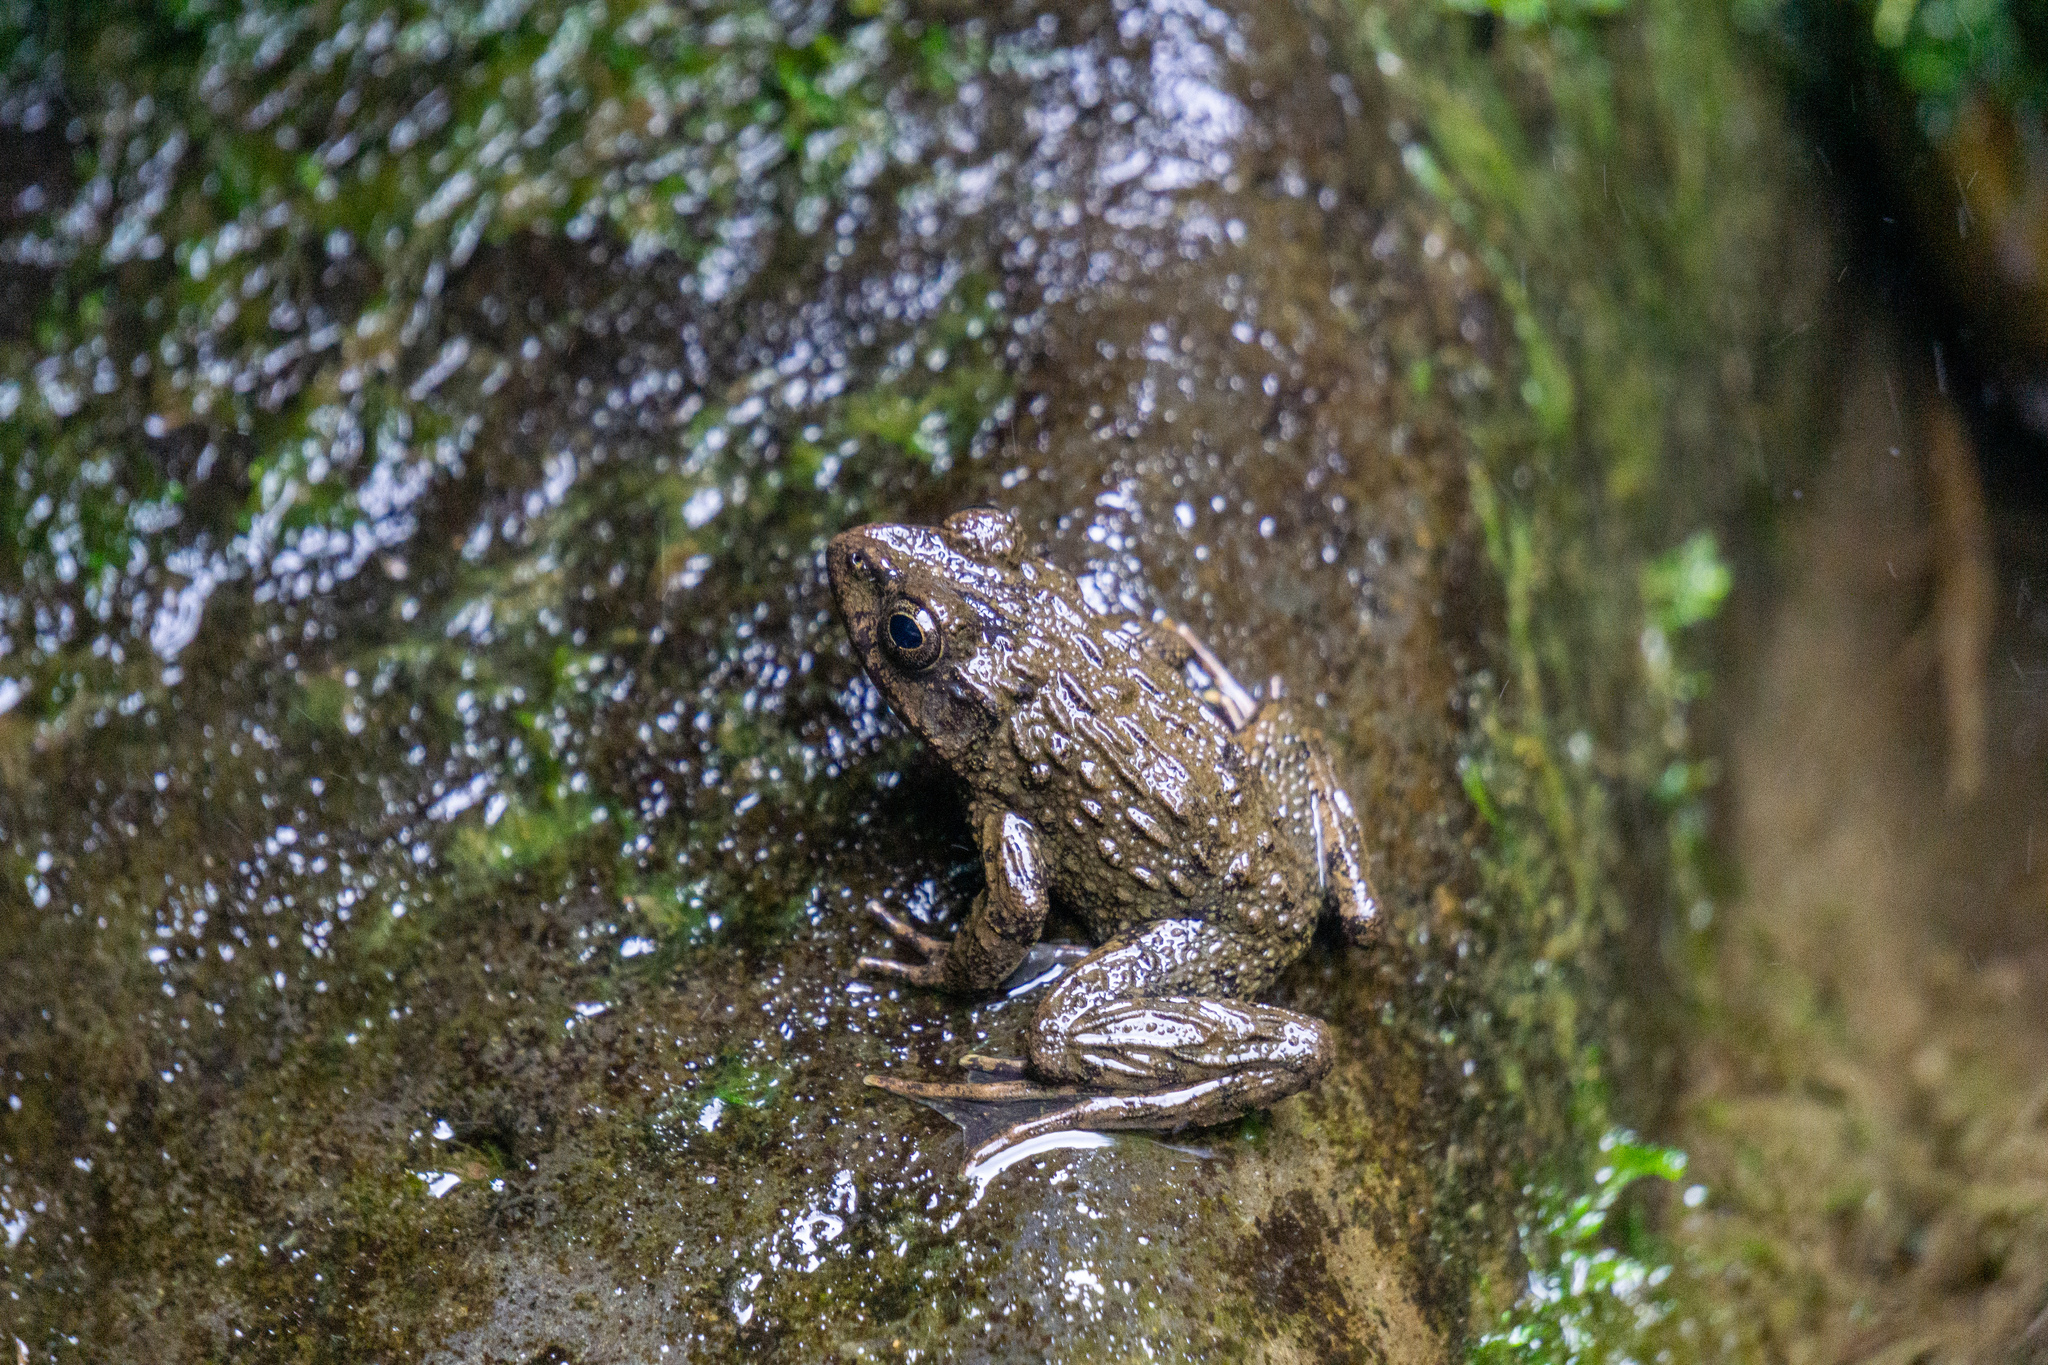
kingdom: Animalia
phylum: Chordata
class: Amphibia
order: Anura
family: Ranidae
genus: Glandirana
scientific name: Glandirana rugosa
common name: Japanese wrinkled frog
